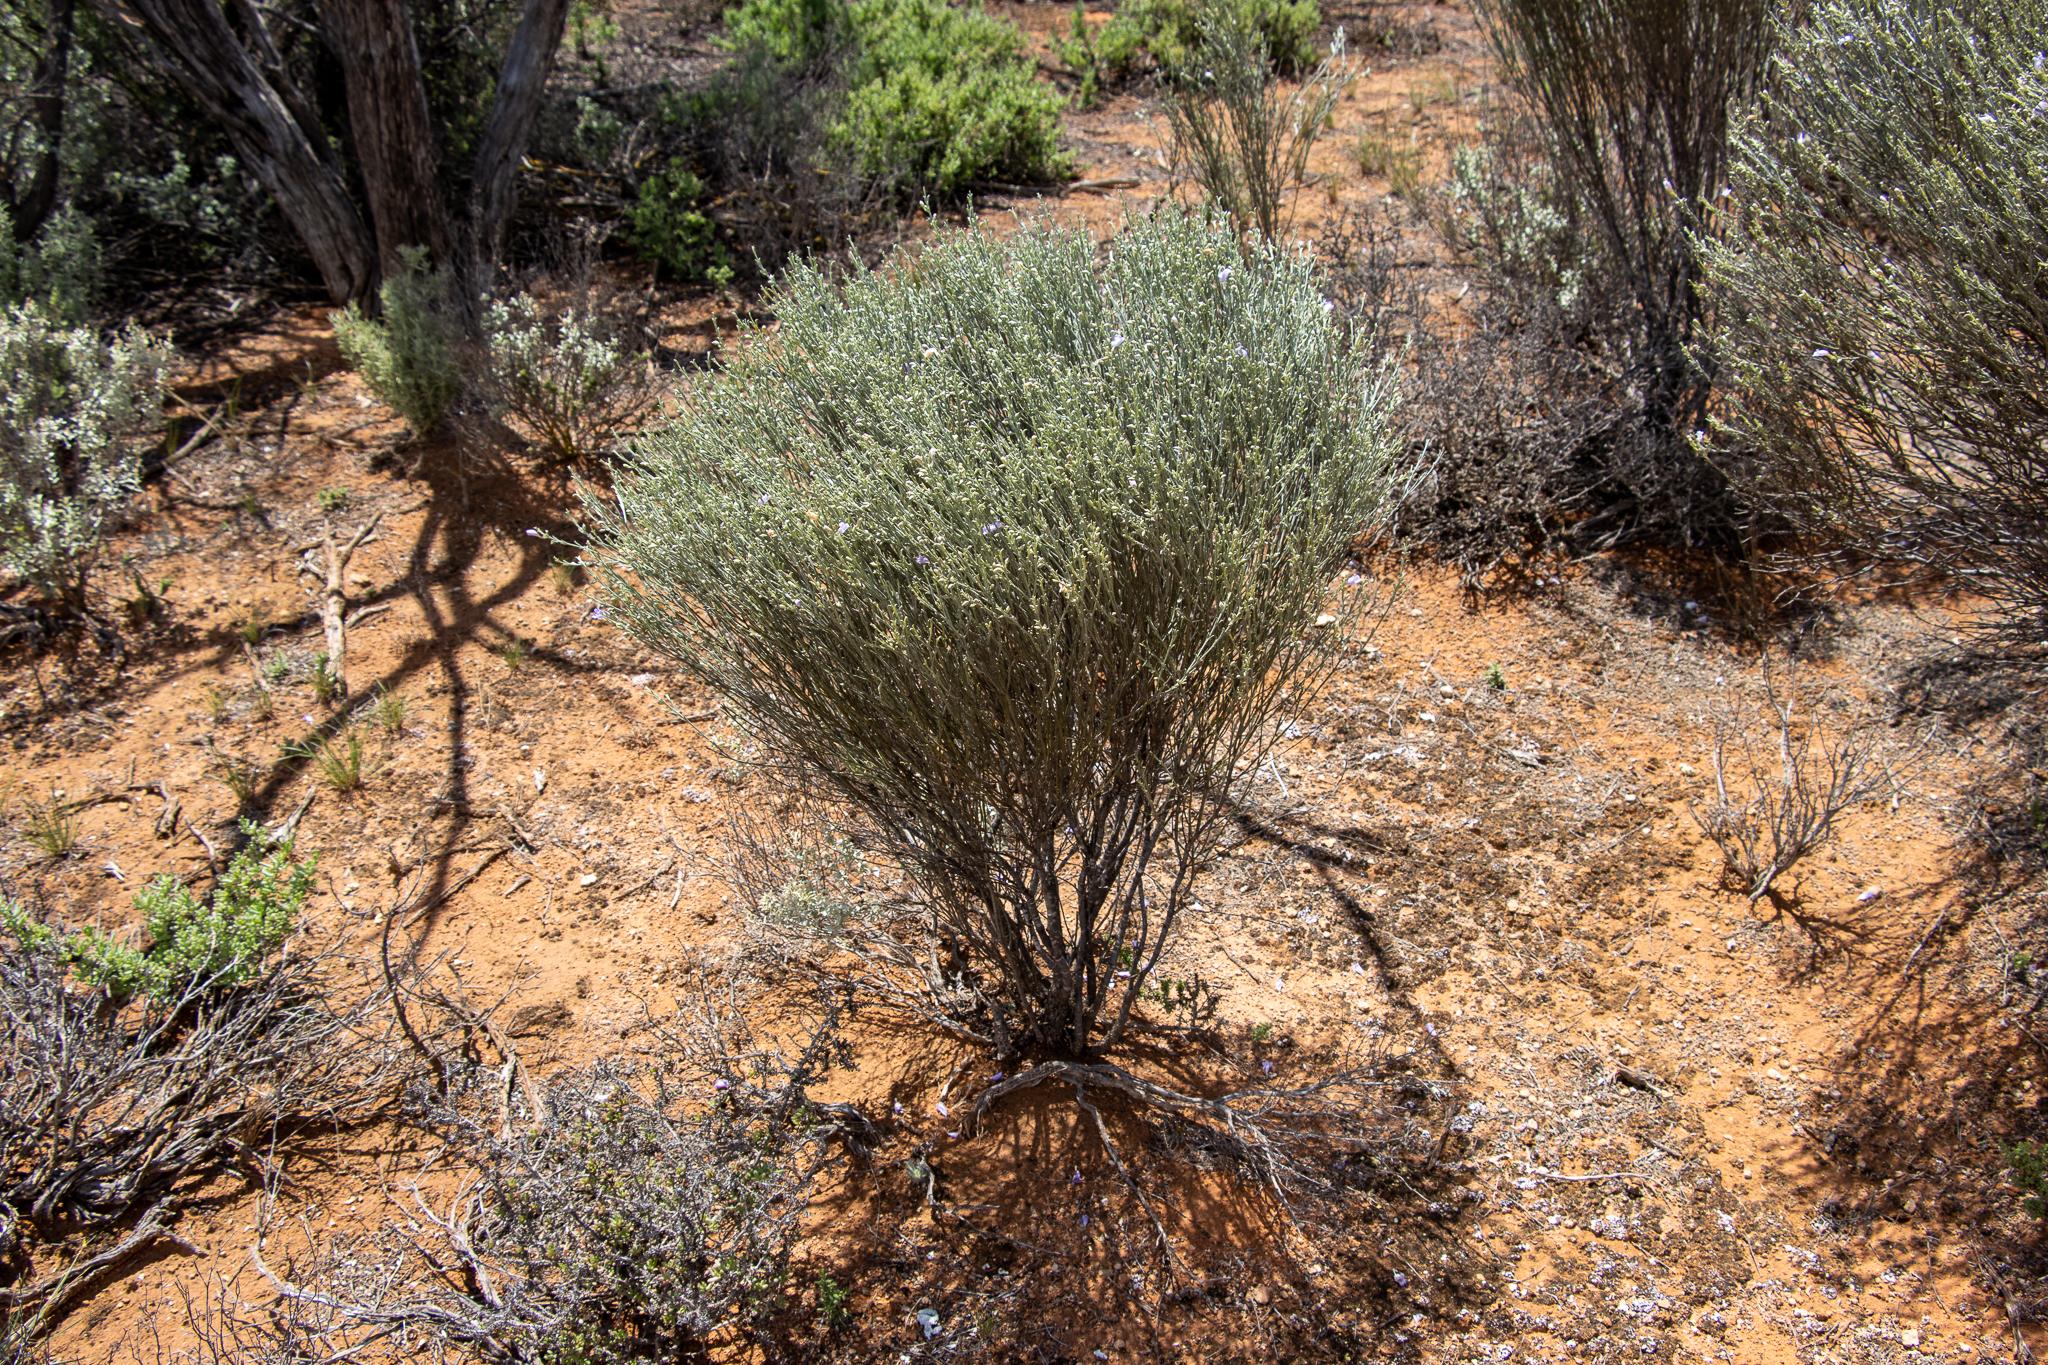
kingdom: Plantae
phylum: Tracheophyta
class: Magnoliopsida
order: Lamiales
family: Scrophulariaceae
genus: Eremophila
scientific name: Eremophila scoparia
